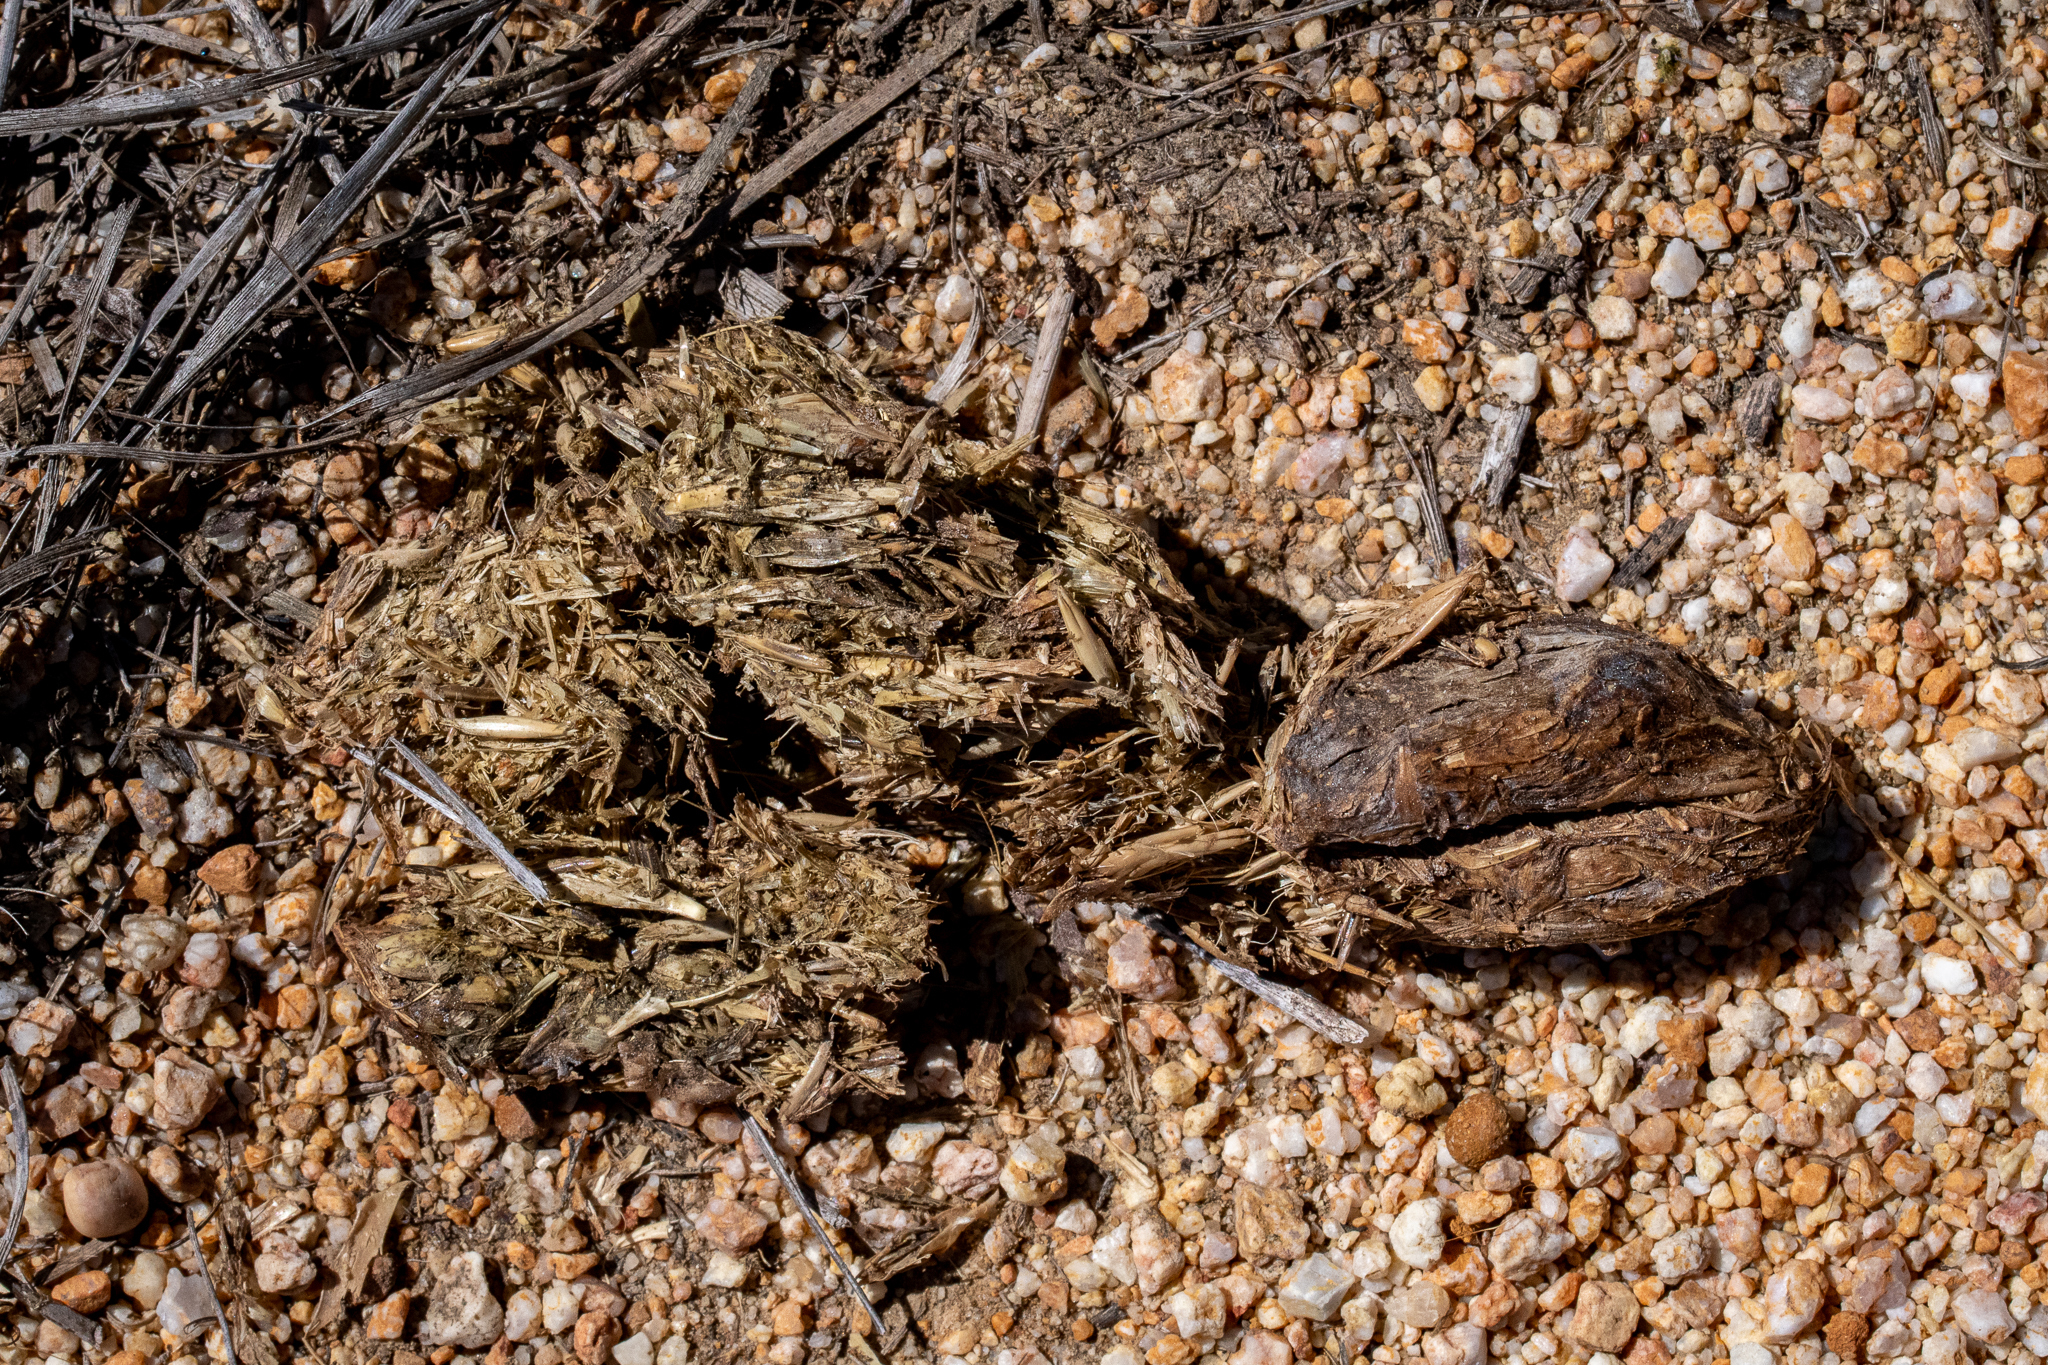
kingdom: Animalia
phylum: Chordata
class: Mammalia
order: Rodentia
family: Hystricidae
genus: Hystrix
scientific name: Hystrix africaeaustralis
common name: Cape porcupine
